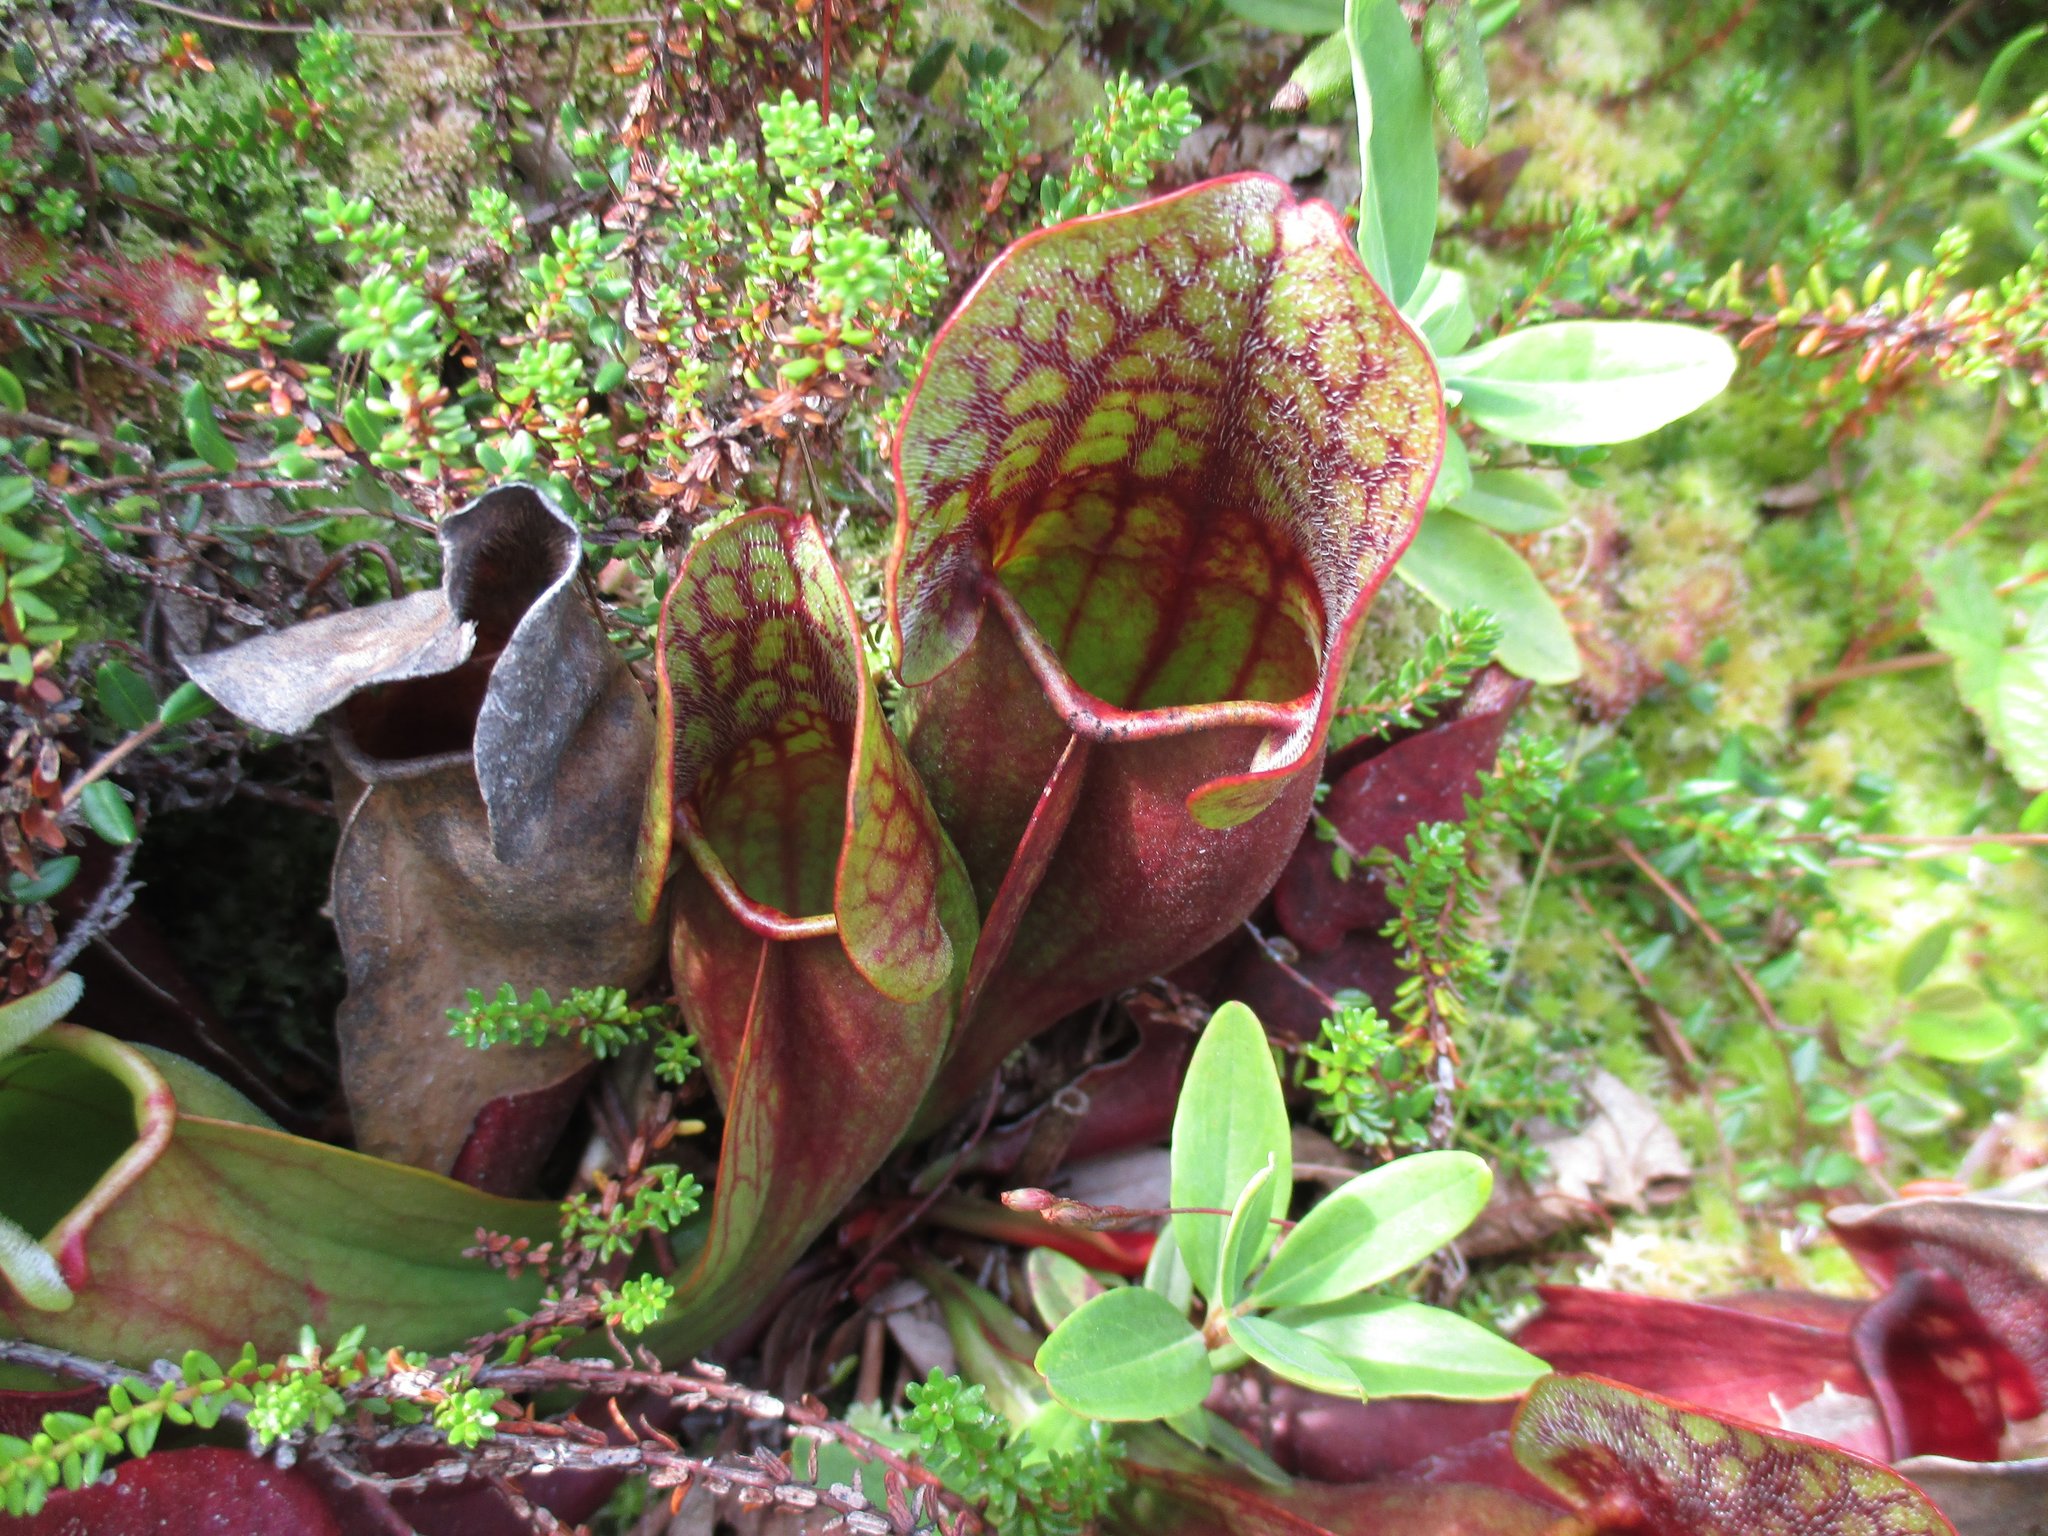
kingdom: Plantae
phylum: Tracheophyta
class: Magnoliopsida
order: Ericales
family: Sarraceniaceae
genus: Sarracenia
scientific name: Sarracenia purpurea
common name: Pitcherplant
